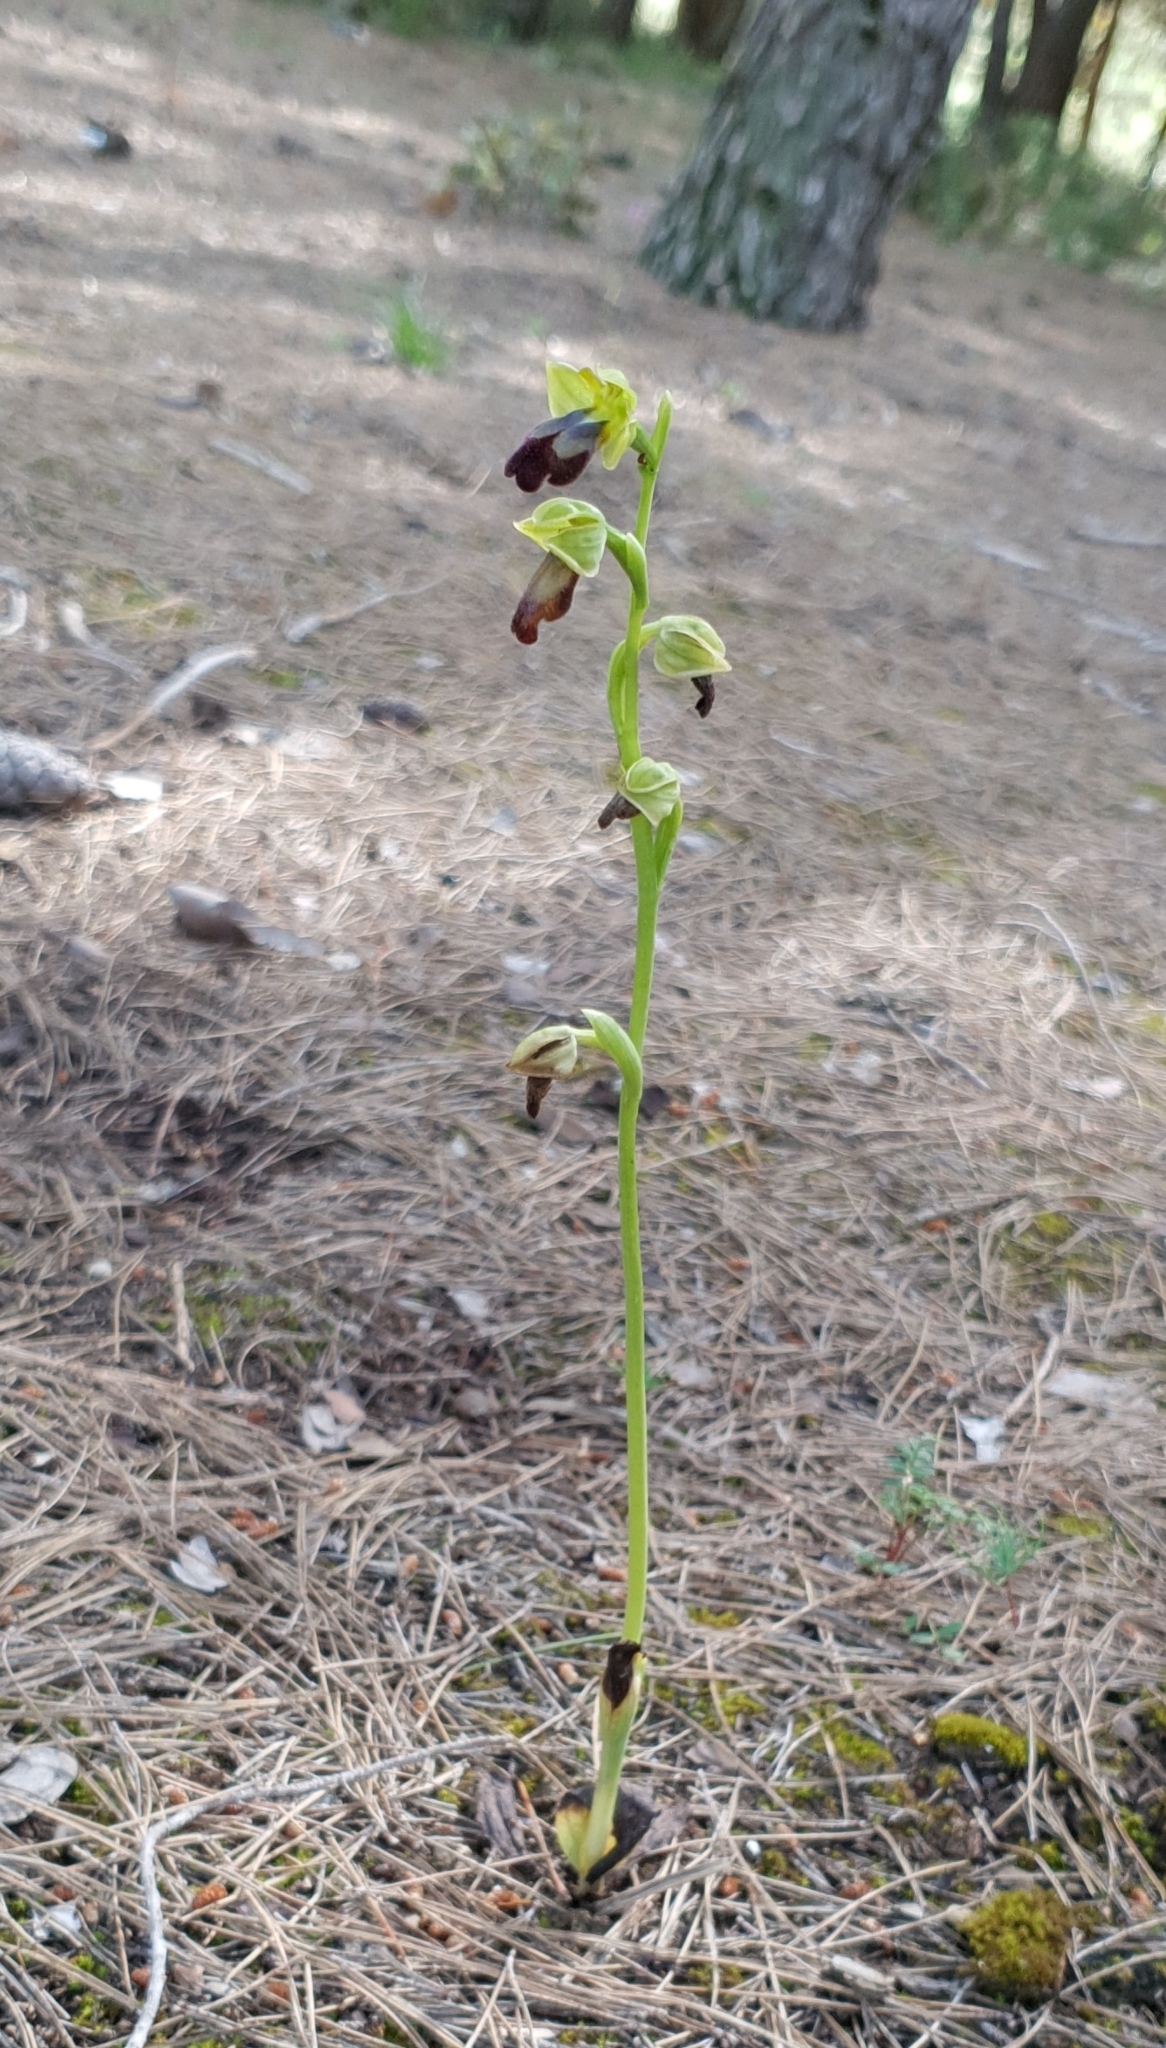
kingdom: Plantae
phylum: Tracheophyta
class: Liliopsida
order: Asparagales
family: Orchidaceae
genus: Ophrys
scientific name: Ophrys fusca
